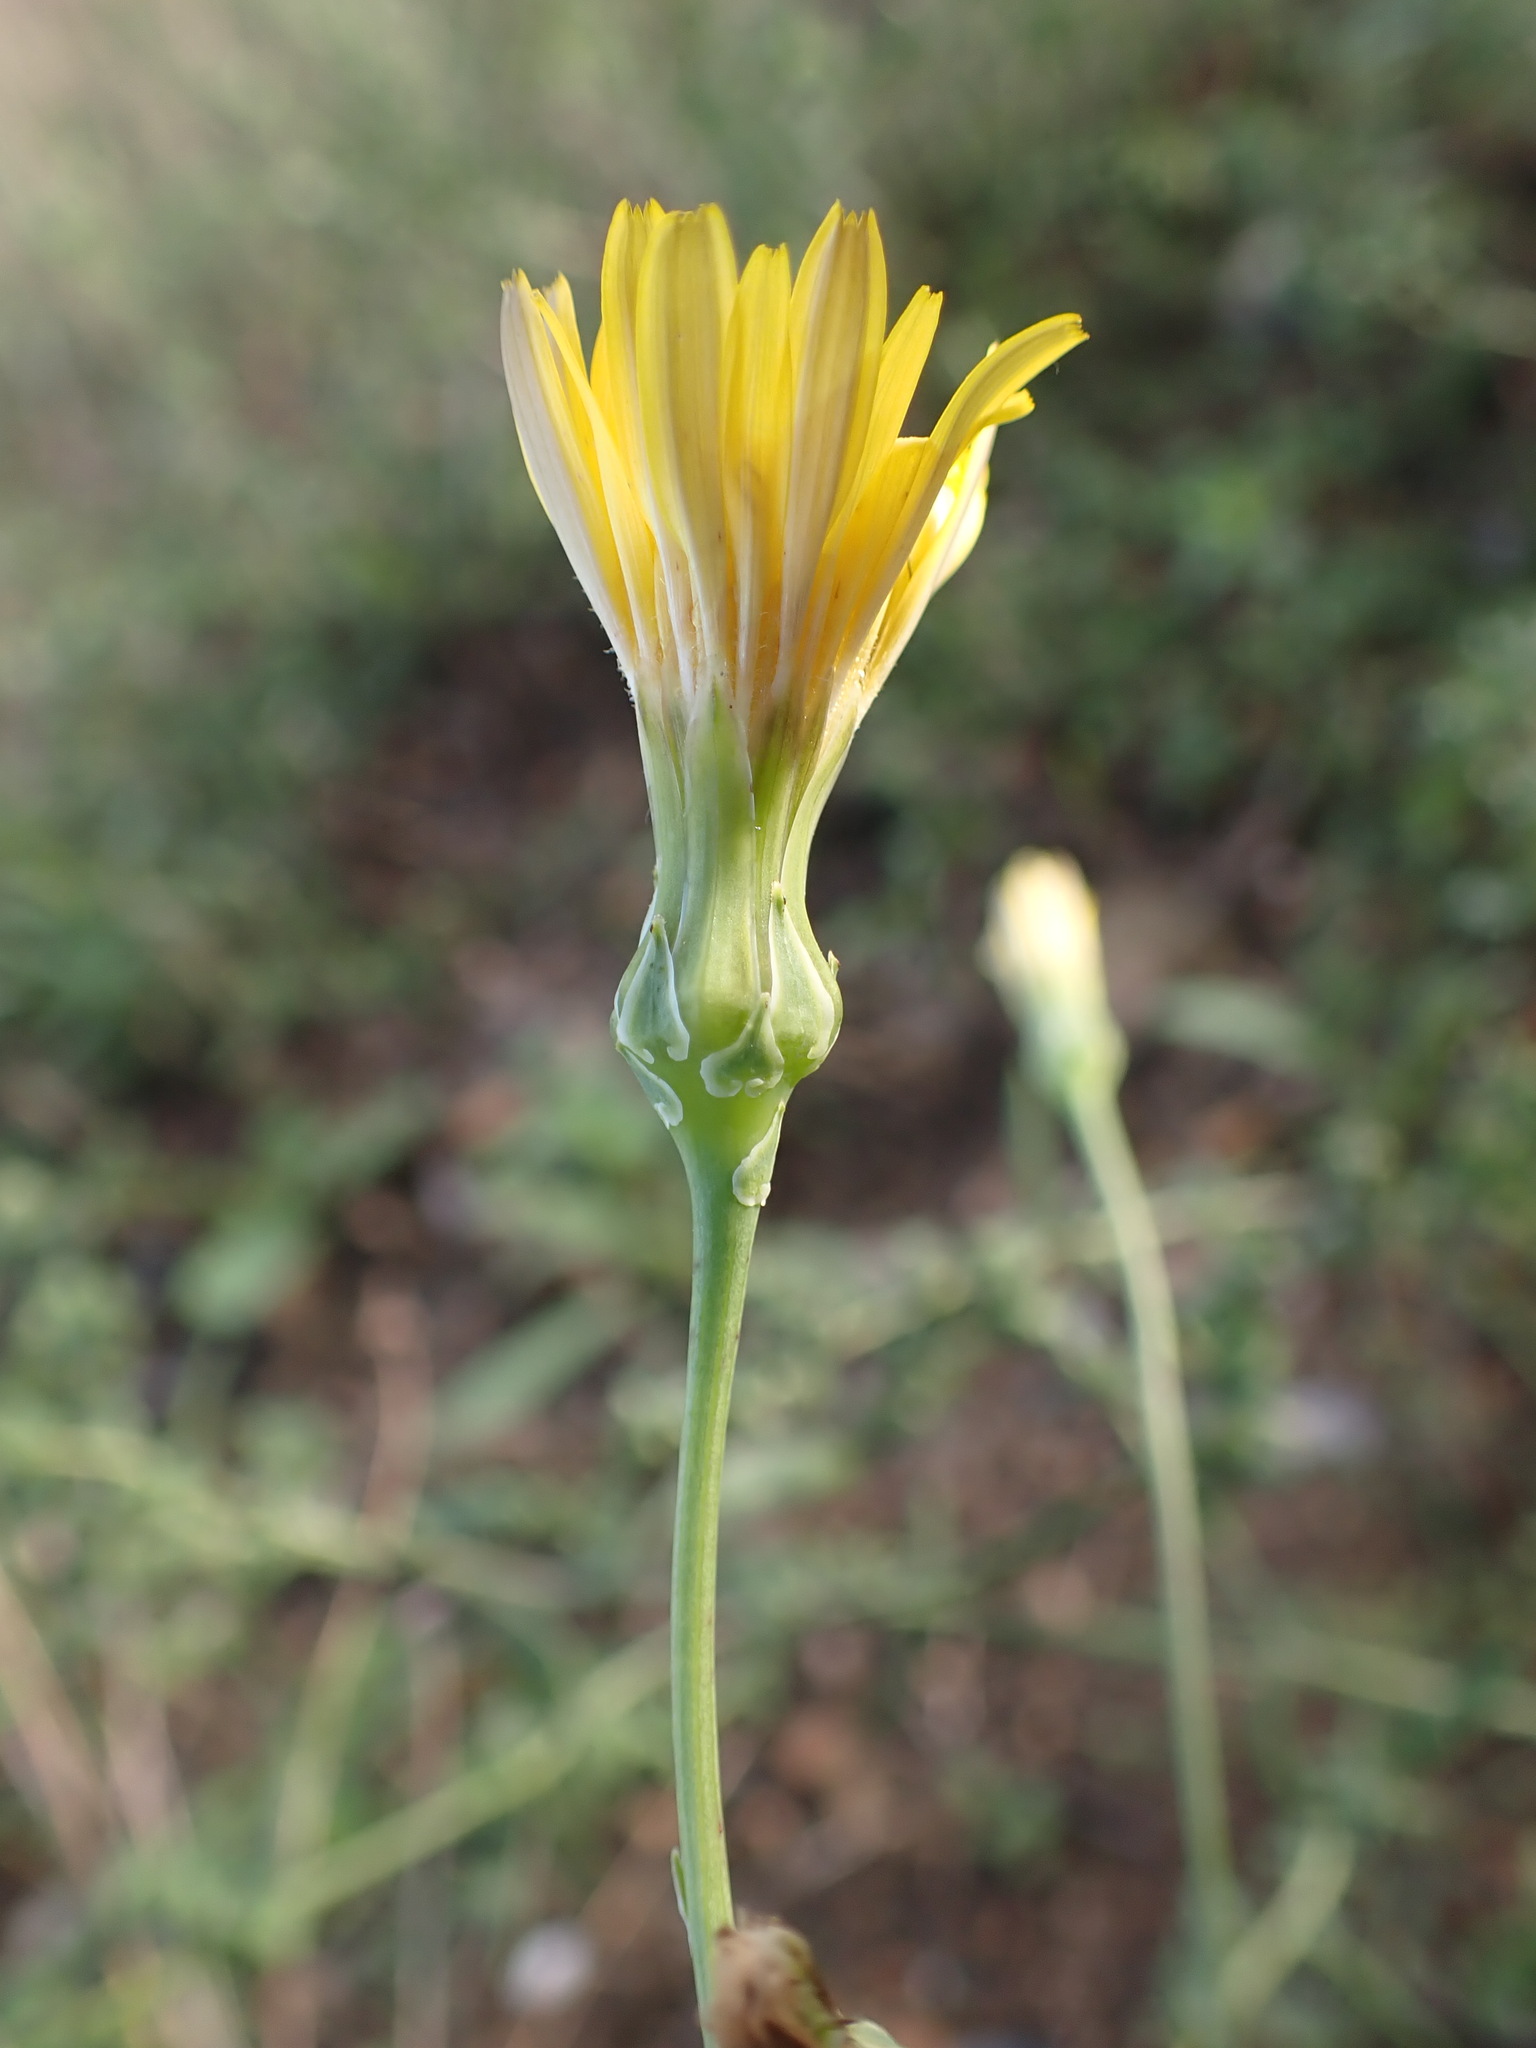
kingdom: Plantae
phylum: Tracheophyta
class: Magnoliopsida
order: Asterales
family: Asteraceae
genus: Reichardia
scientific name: Reichardia picroides
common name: Common brighteyes
